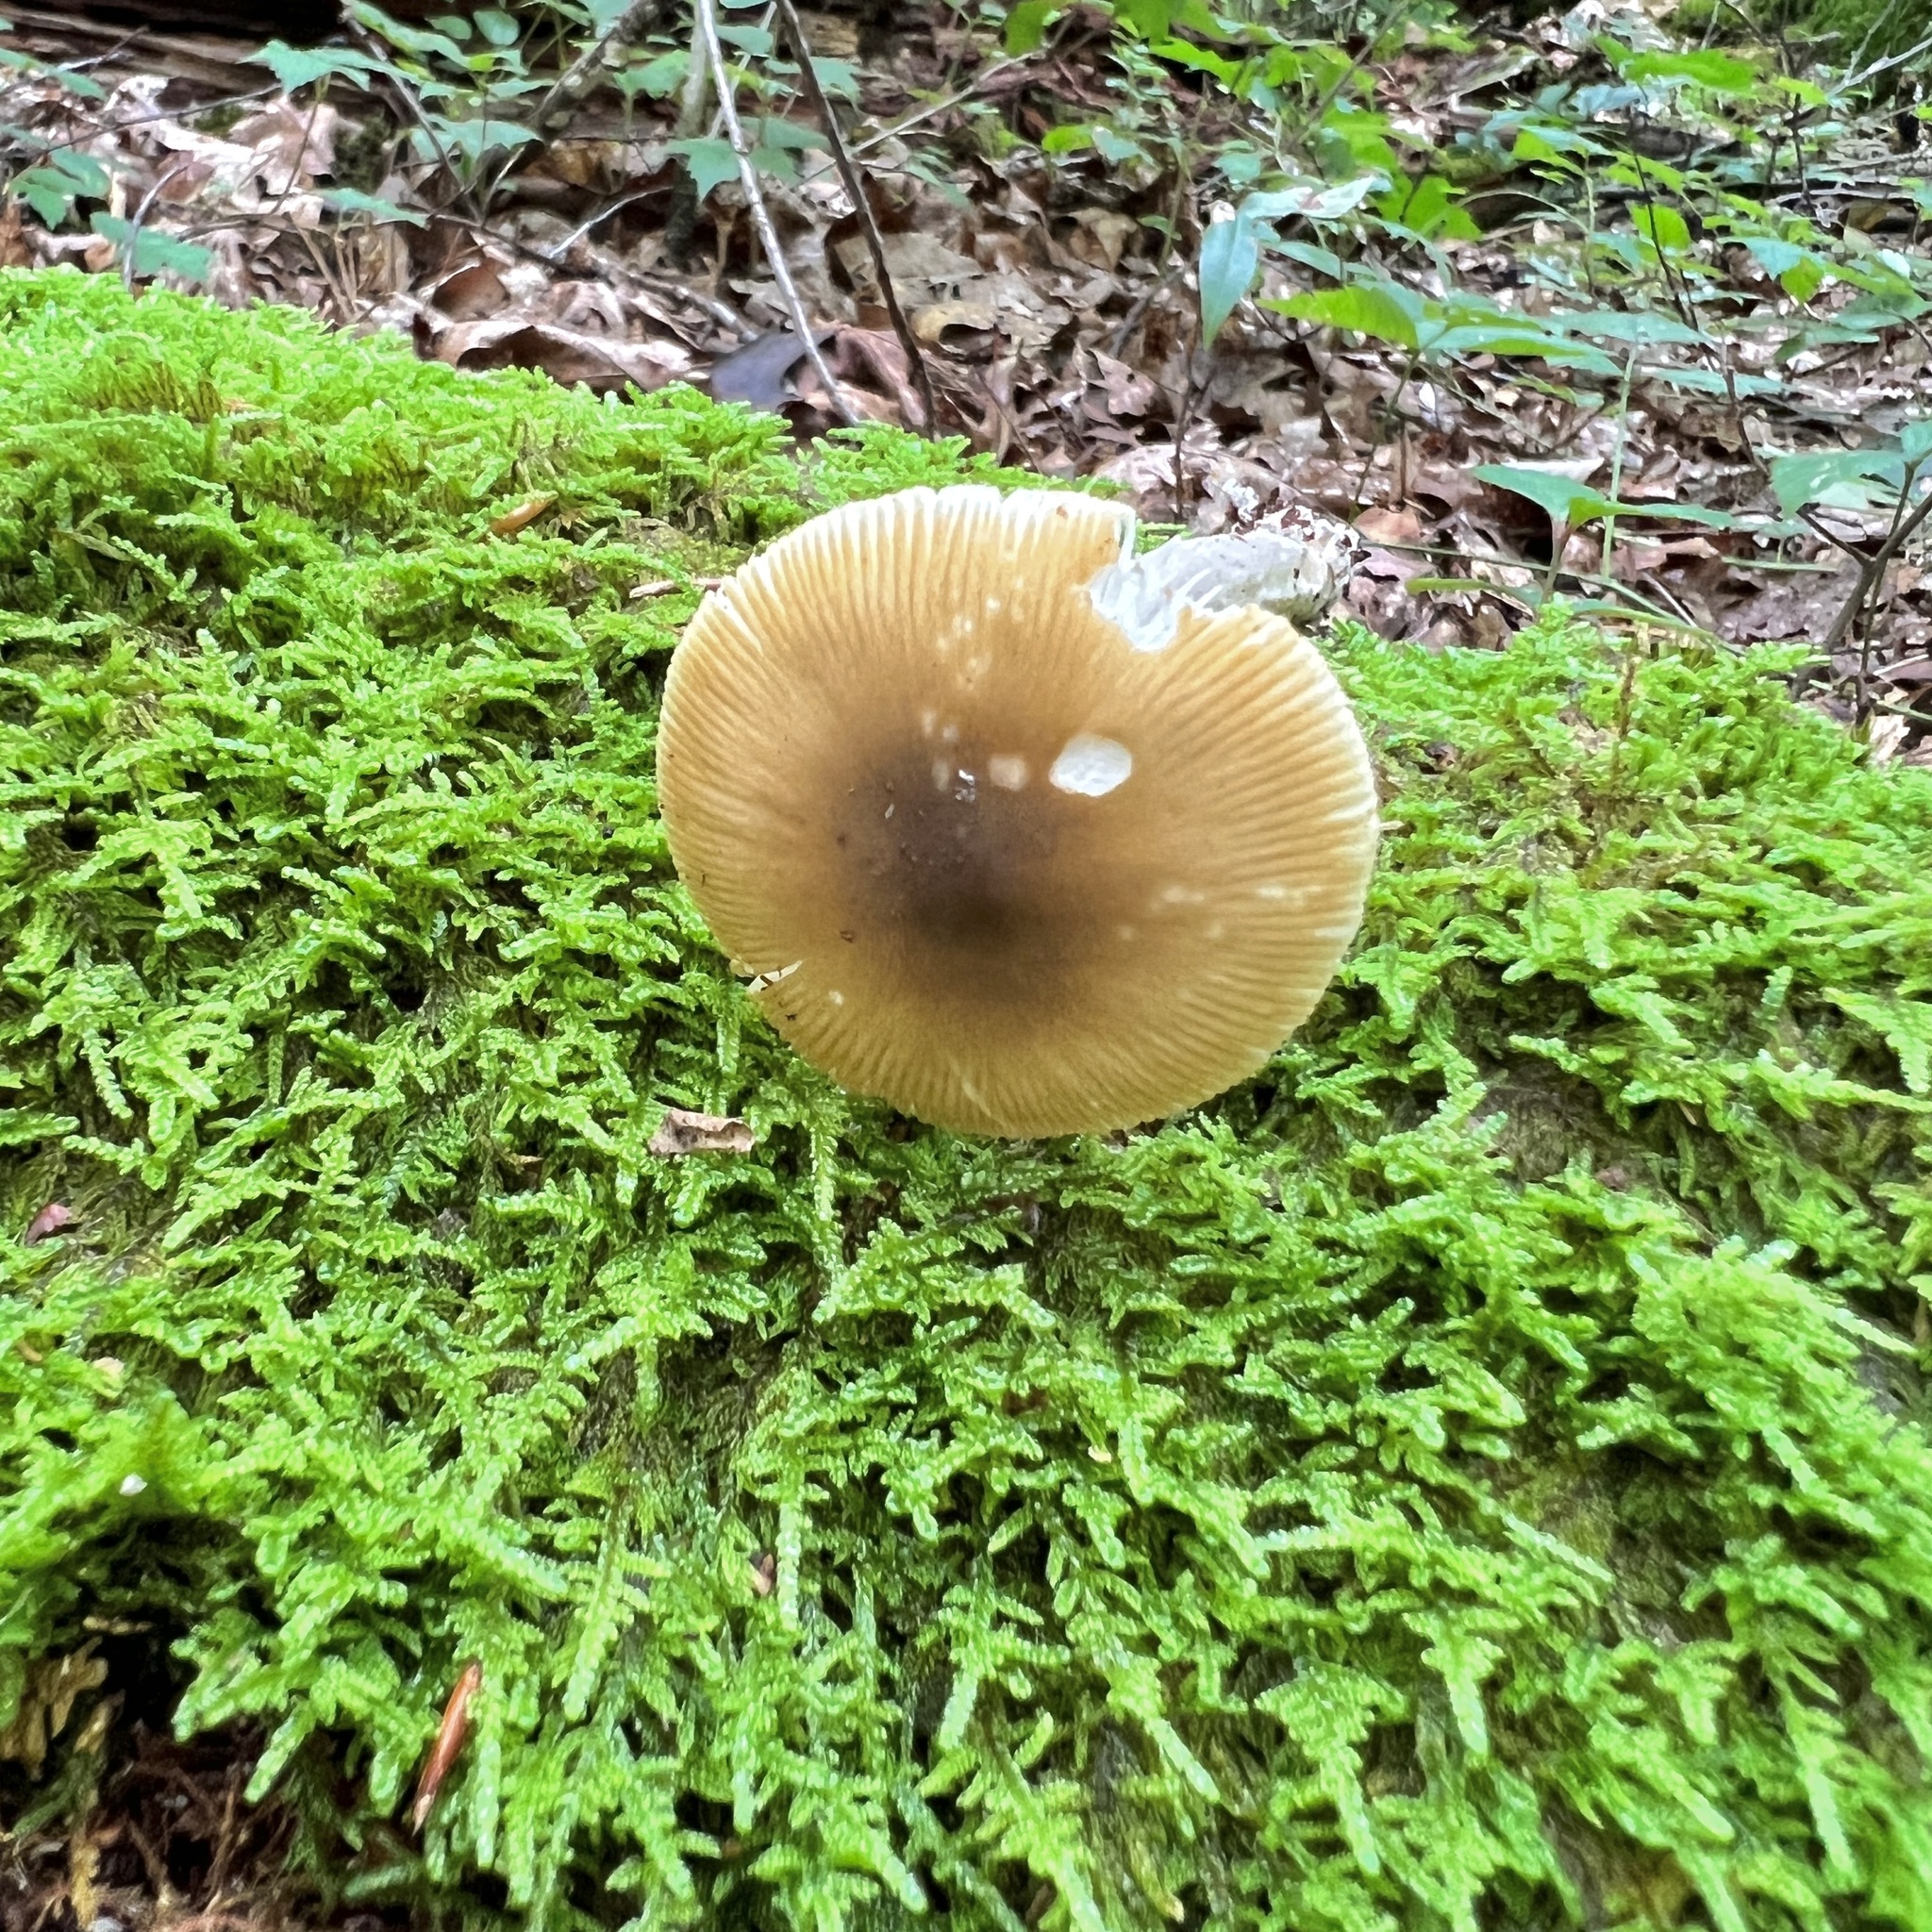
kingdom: Fungi
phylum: Basidiomycota
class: Agaricomycetes
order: Agaricales
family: Amanitaceae
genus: Amanita
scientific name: Amanita fulva
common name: Tawny grisette
